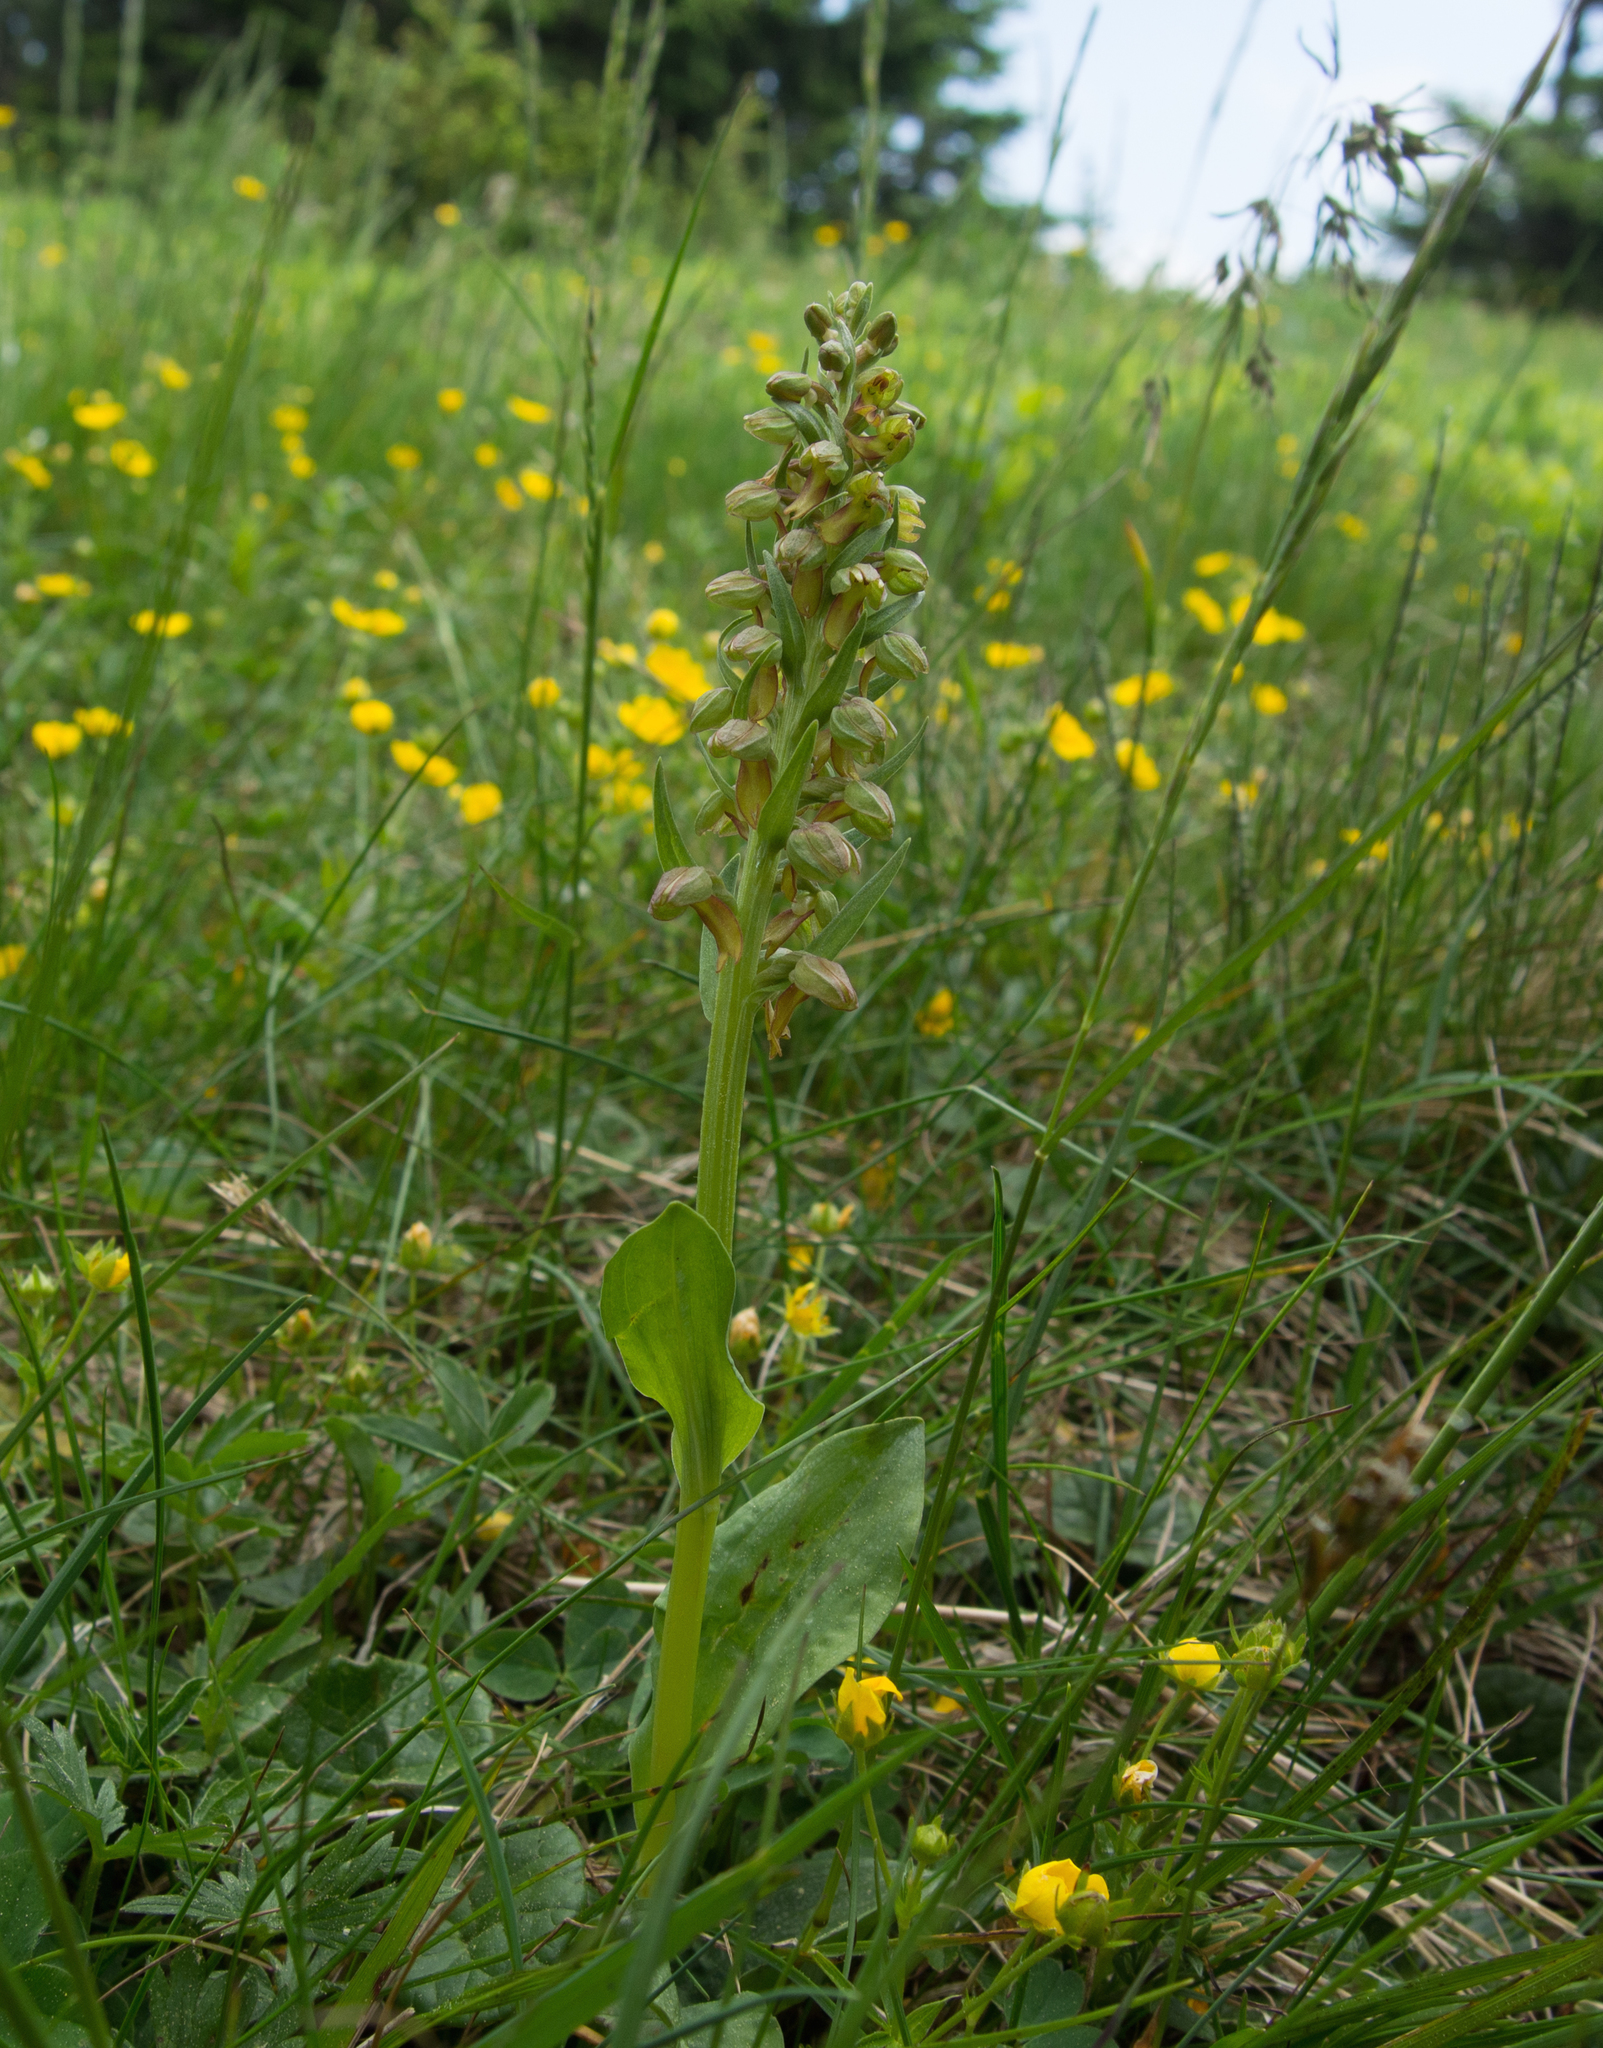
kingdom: Plantae
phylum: Tracheophyta
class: Liliopsida
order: Asparagales
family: Orchidaceae
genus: Dactylorhiza
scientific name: Dactylorhiza viridis
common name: Longbract frog orchid
